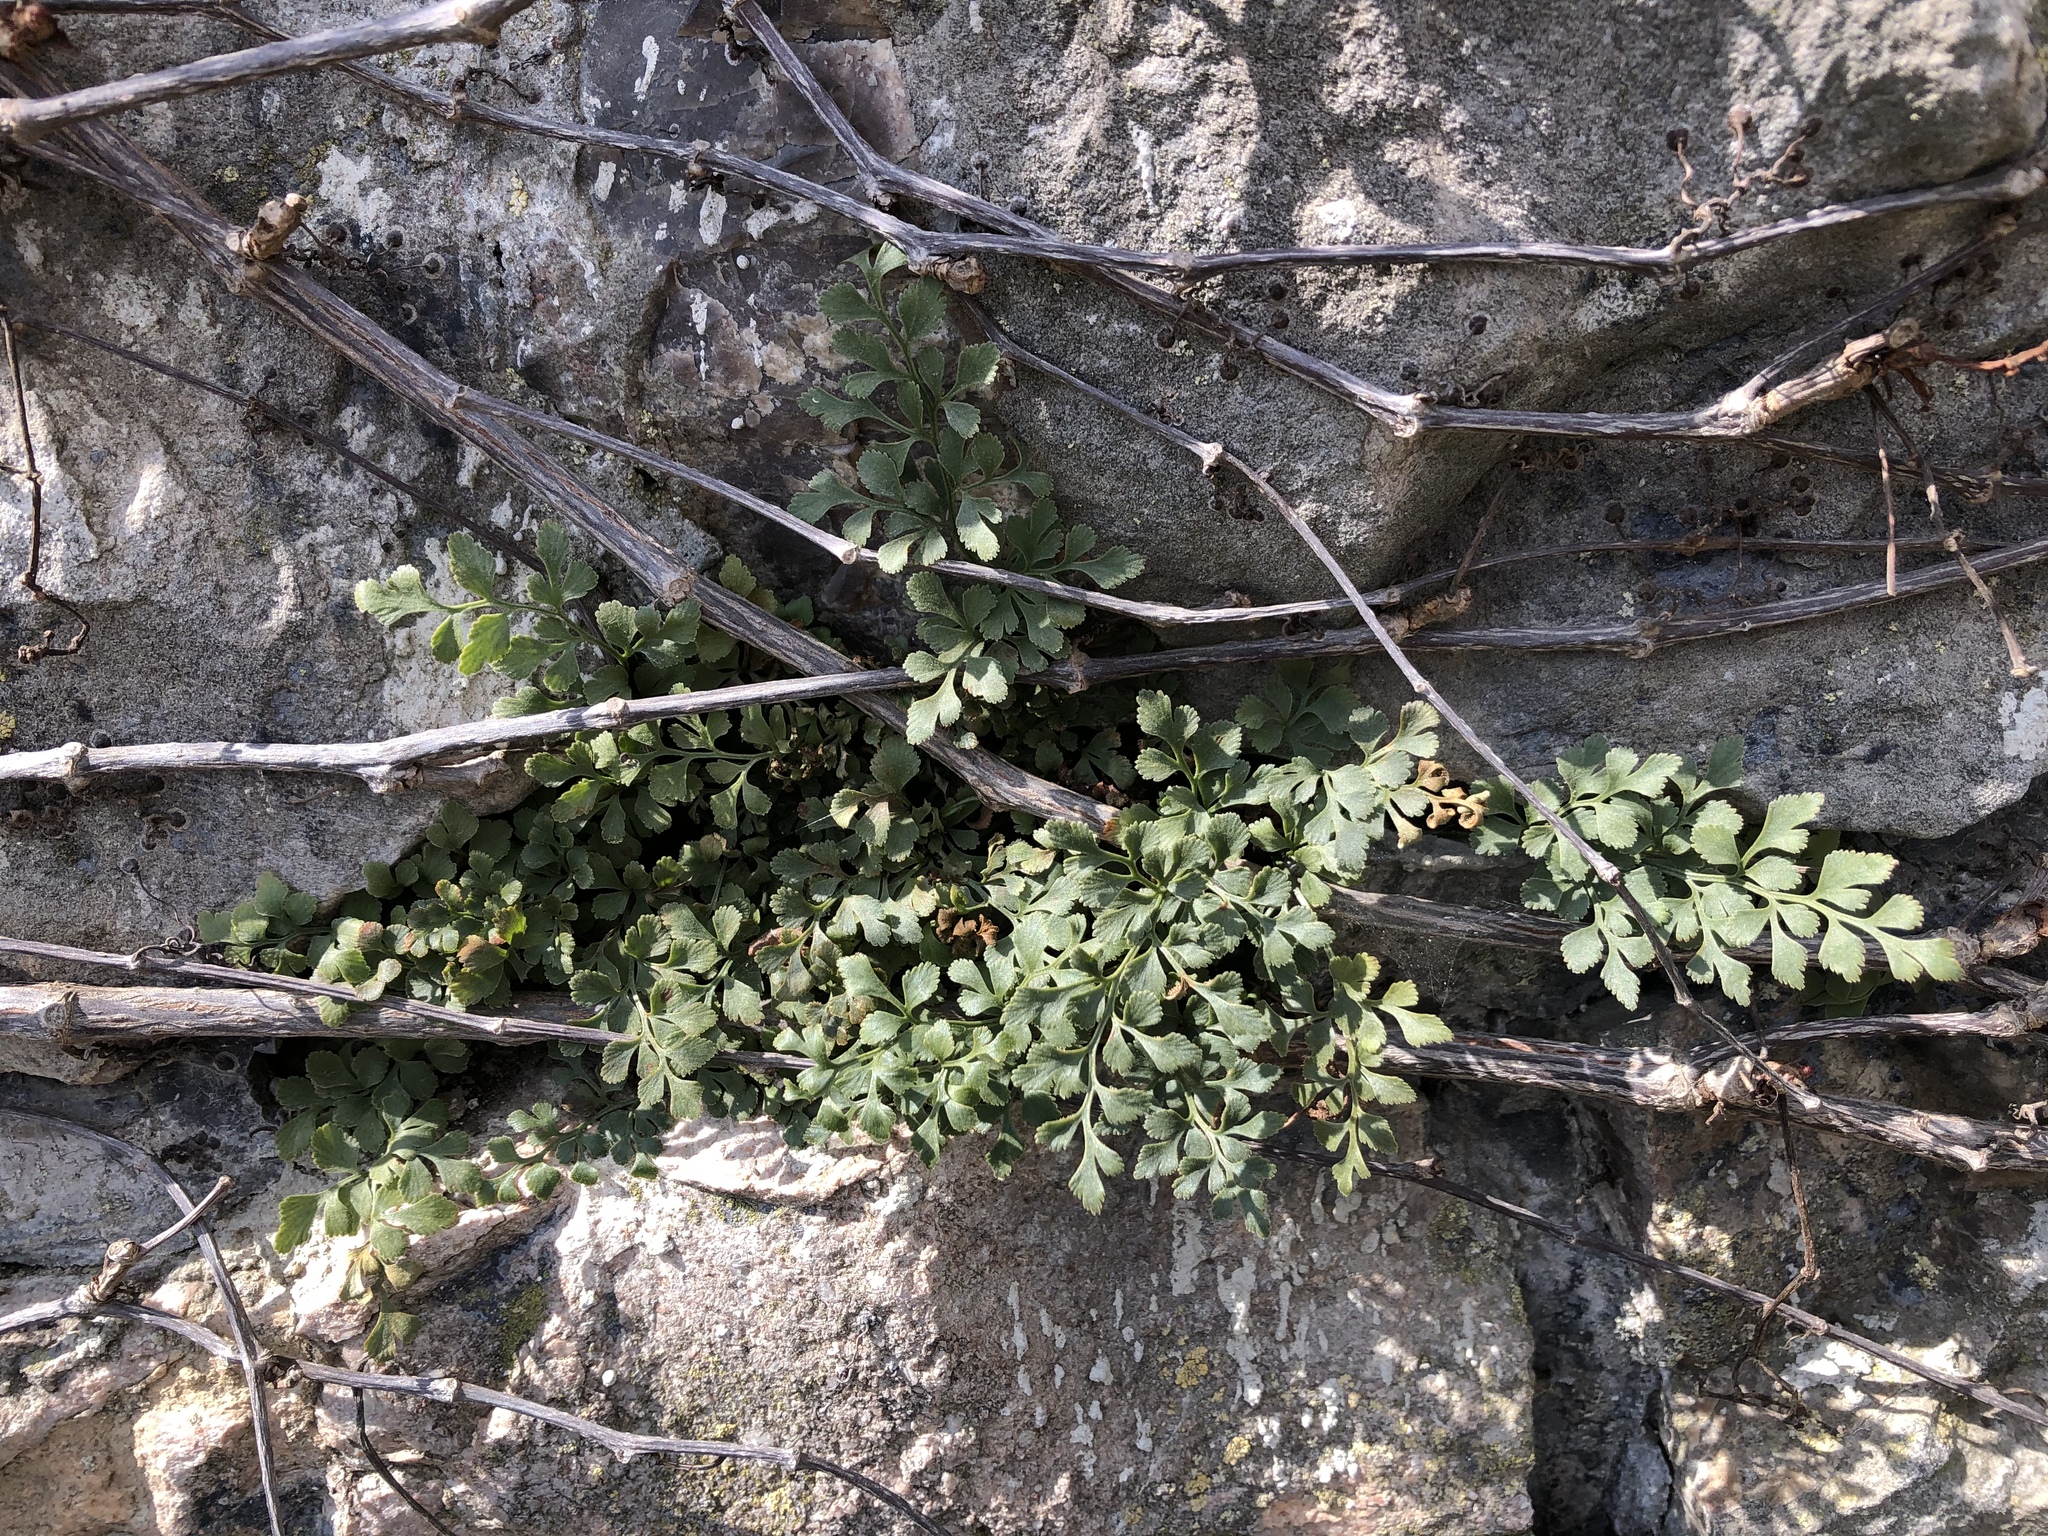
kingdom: Plantae
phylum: Tracheophyta
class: Polypodiopsida
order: Polypodiales
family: Aspleniaceae
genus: Asplenium
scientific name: Asplenium ruta-muraria
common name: Wall-rue
